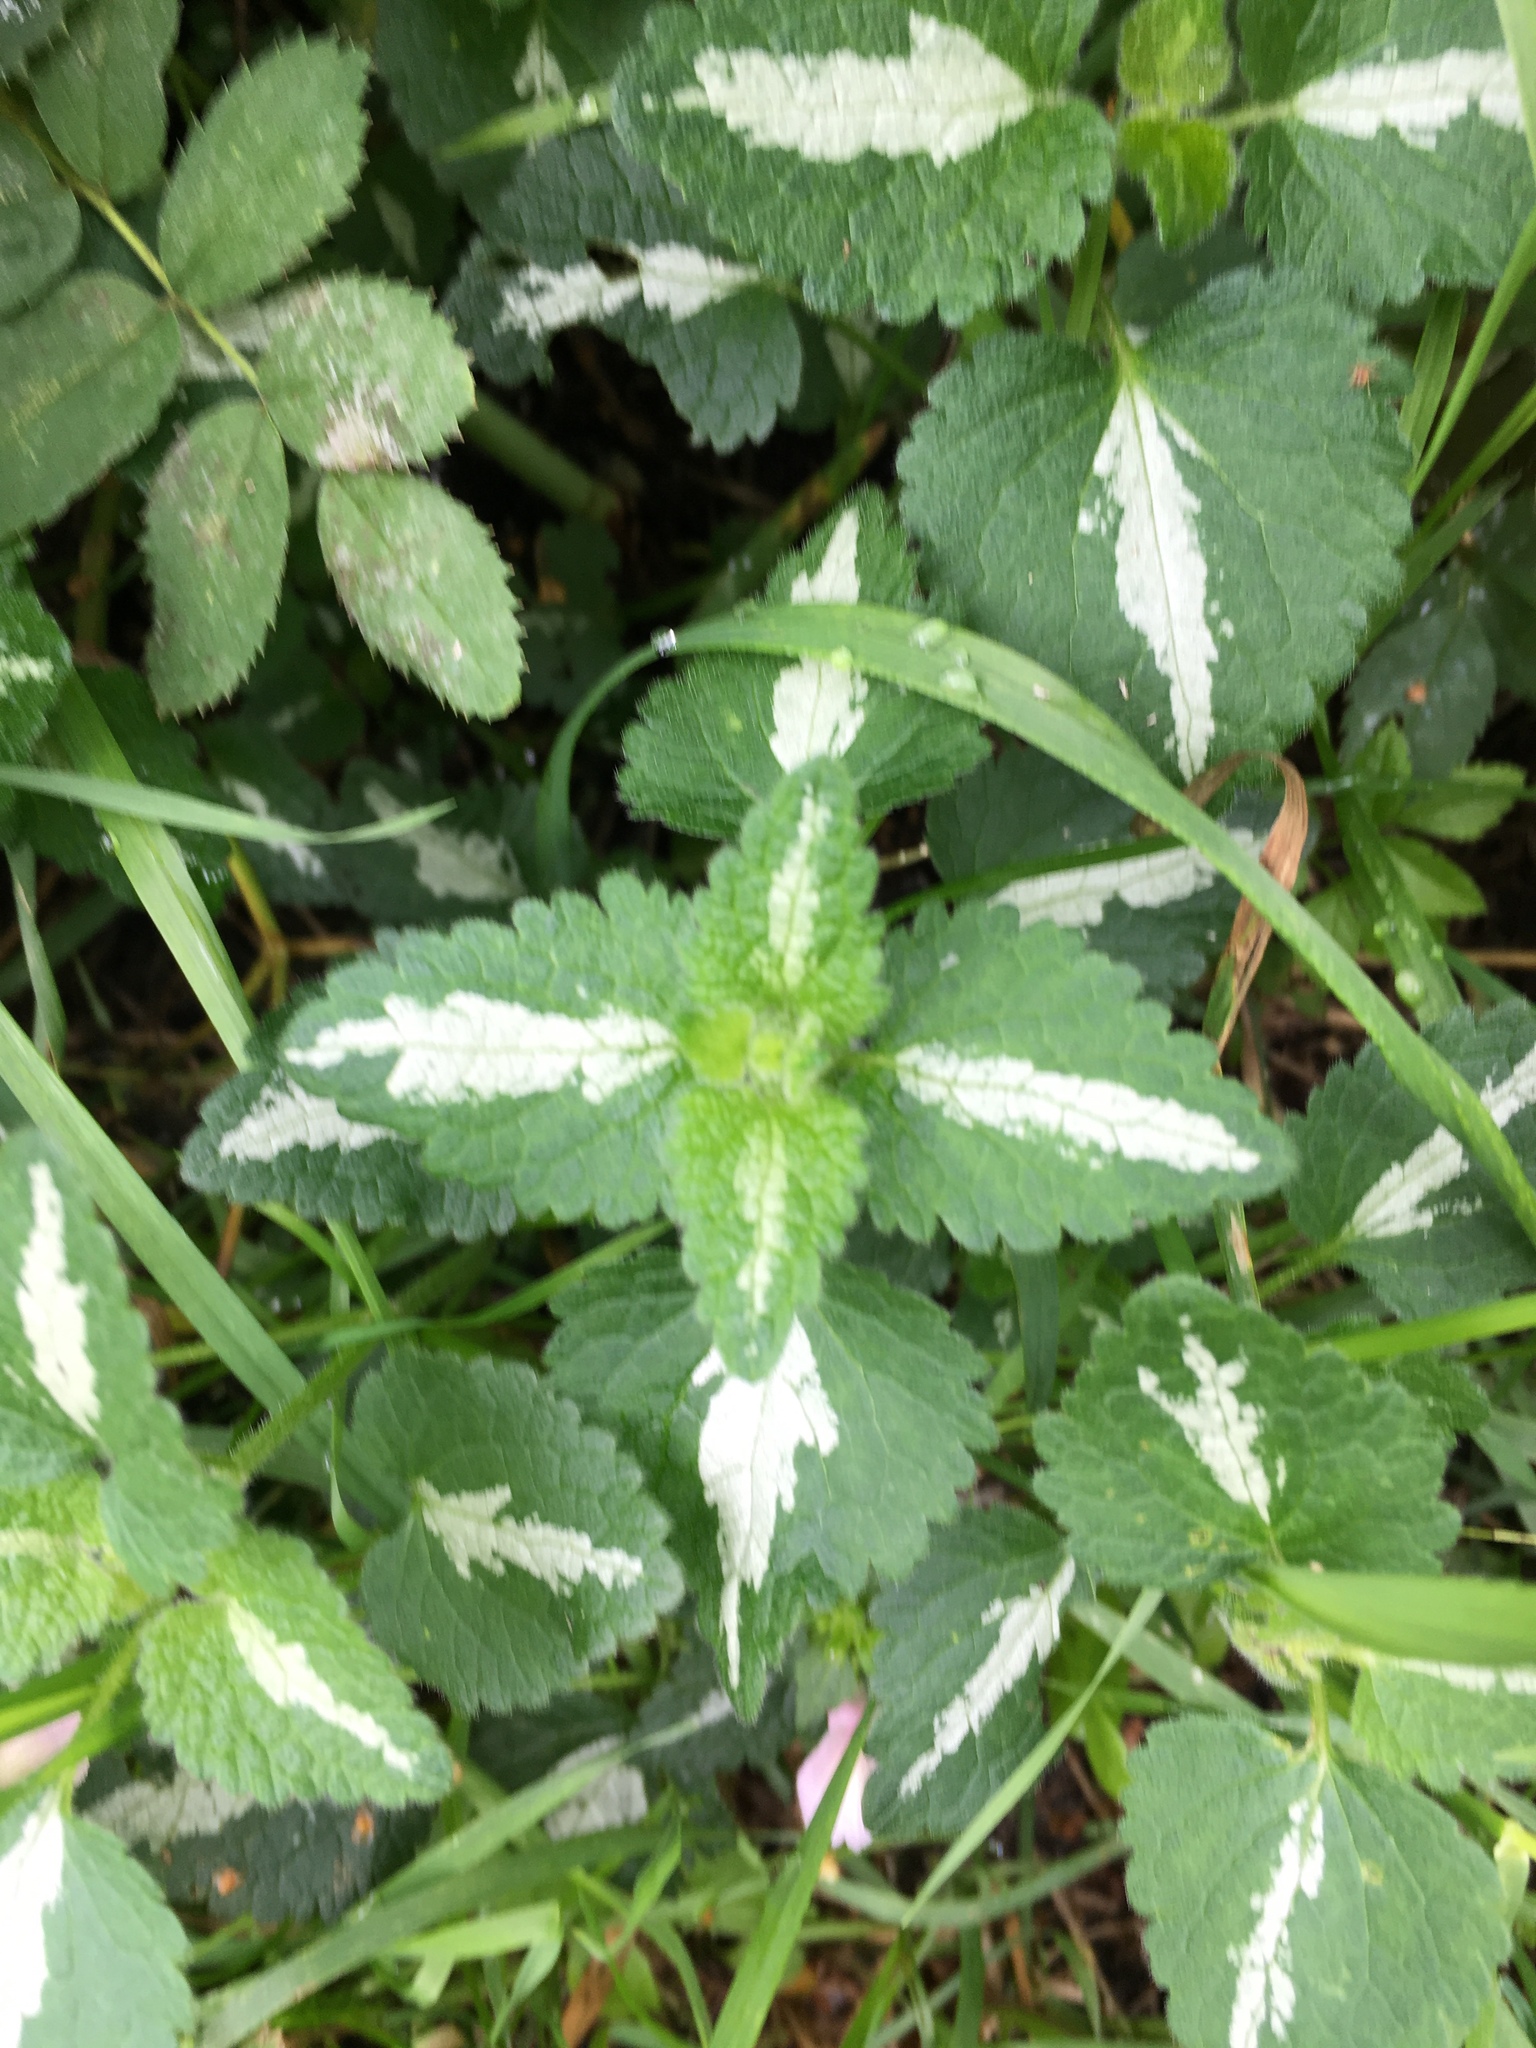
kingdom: Plantae
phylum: Tracheophyta
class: Magnoliopsida
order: Lamiales
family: Lamiaceae
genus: Lamium
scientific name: Lamium maculatum
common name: Spotted dead-nettle
